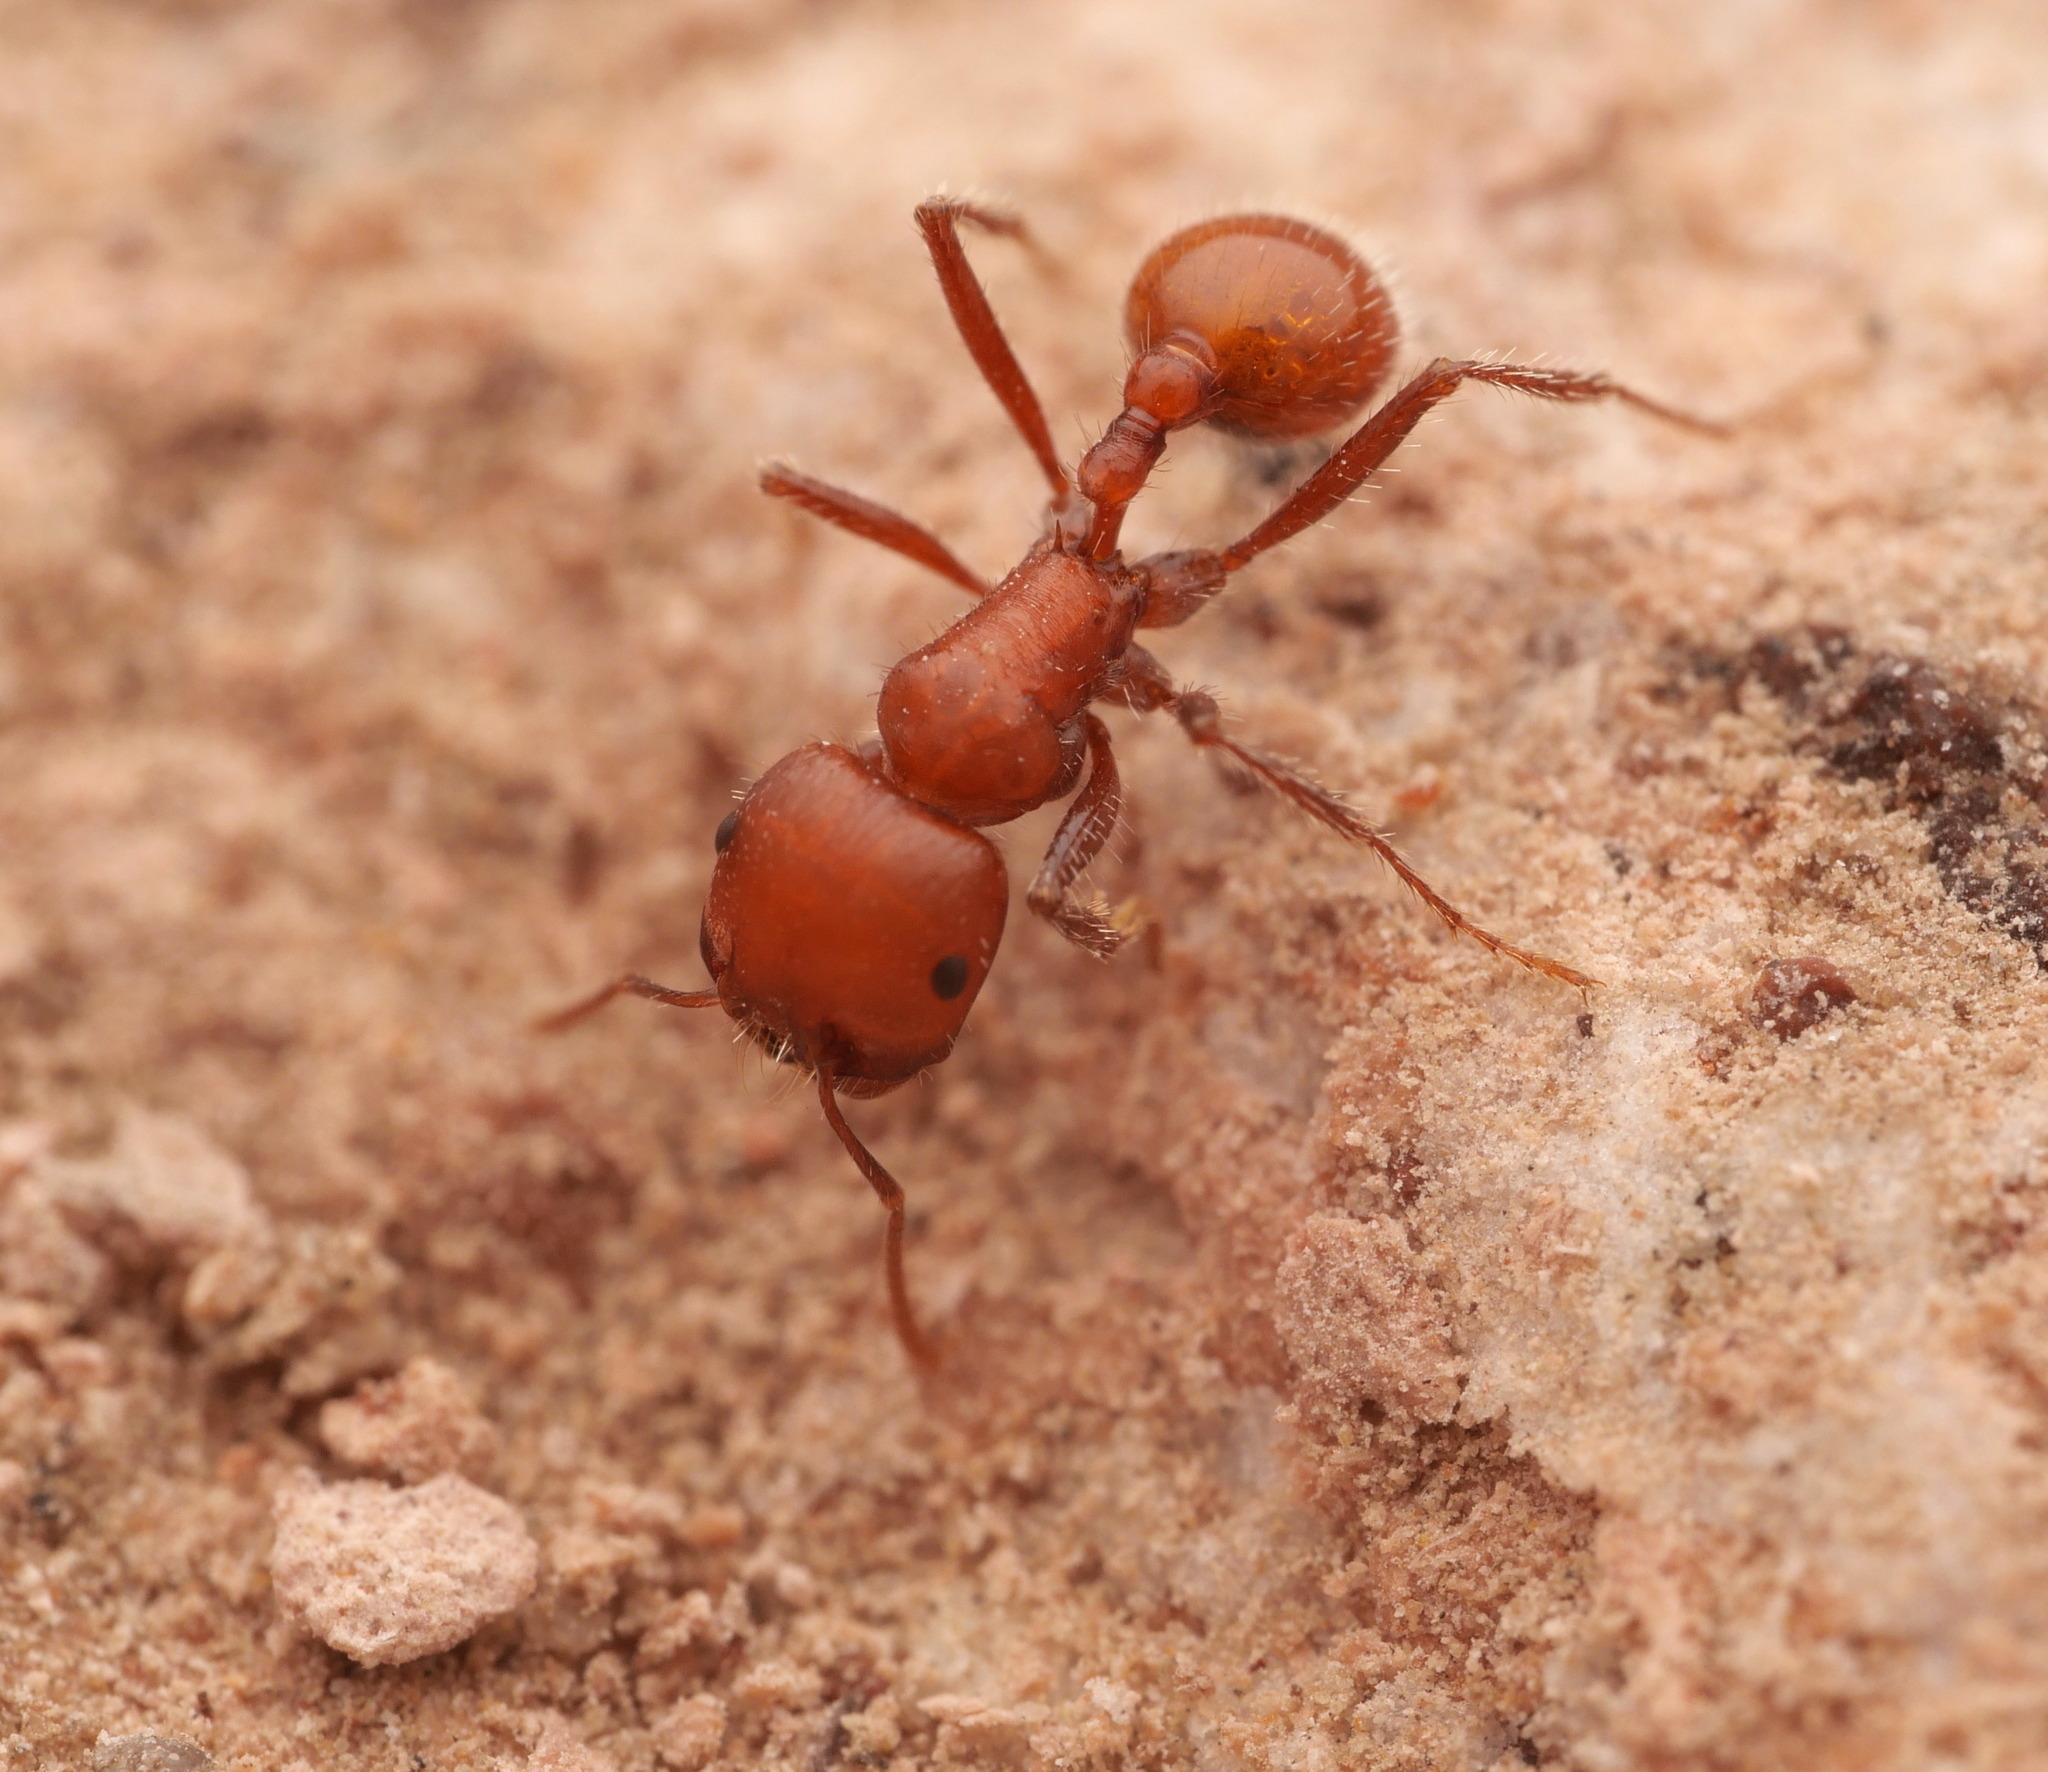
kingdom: Animalia
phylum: Arthropoda
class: Insecta
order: Hymenoptera
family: Formicidae
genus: Pogonomyrmex
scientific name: Pogonomyrmex tenuispinus
